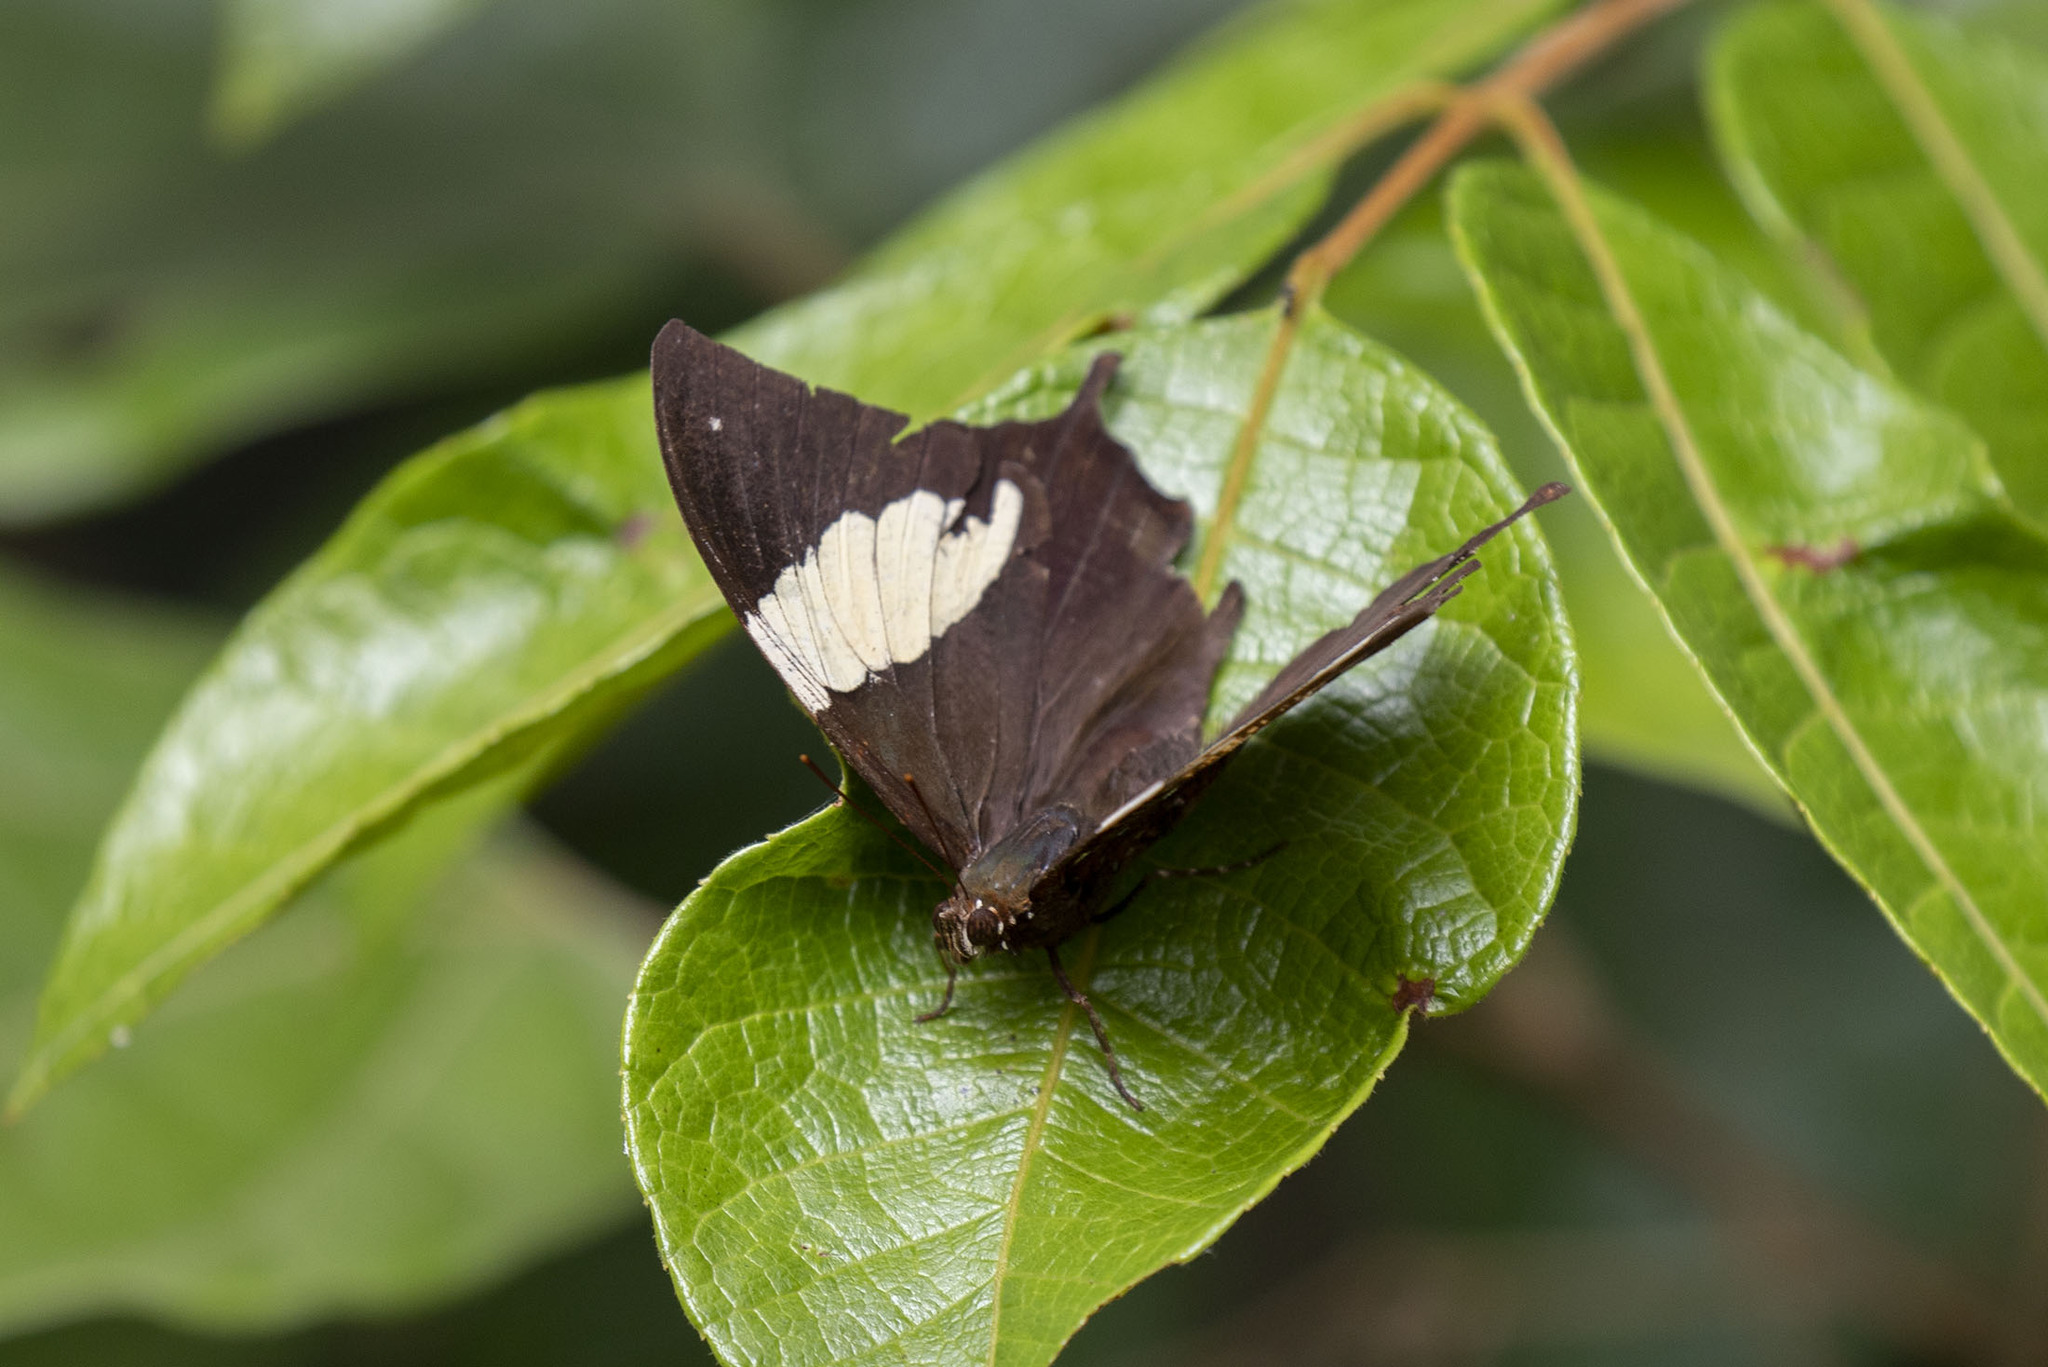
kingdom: Animalia
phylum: Arthropoda
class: Insecta
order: Lepidoptera
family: Nymphalidae
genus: Hypna
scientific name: Hypna clytemnestra
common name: Silver-studded leafwing
